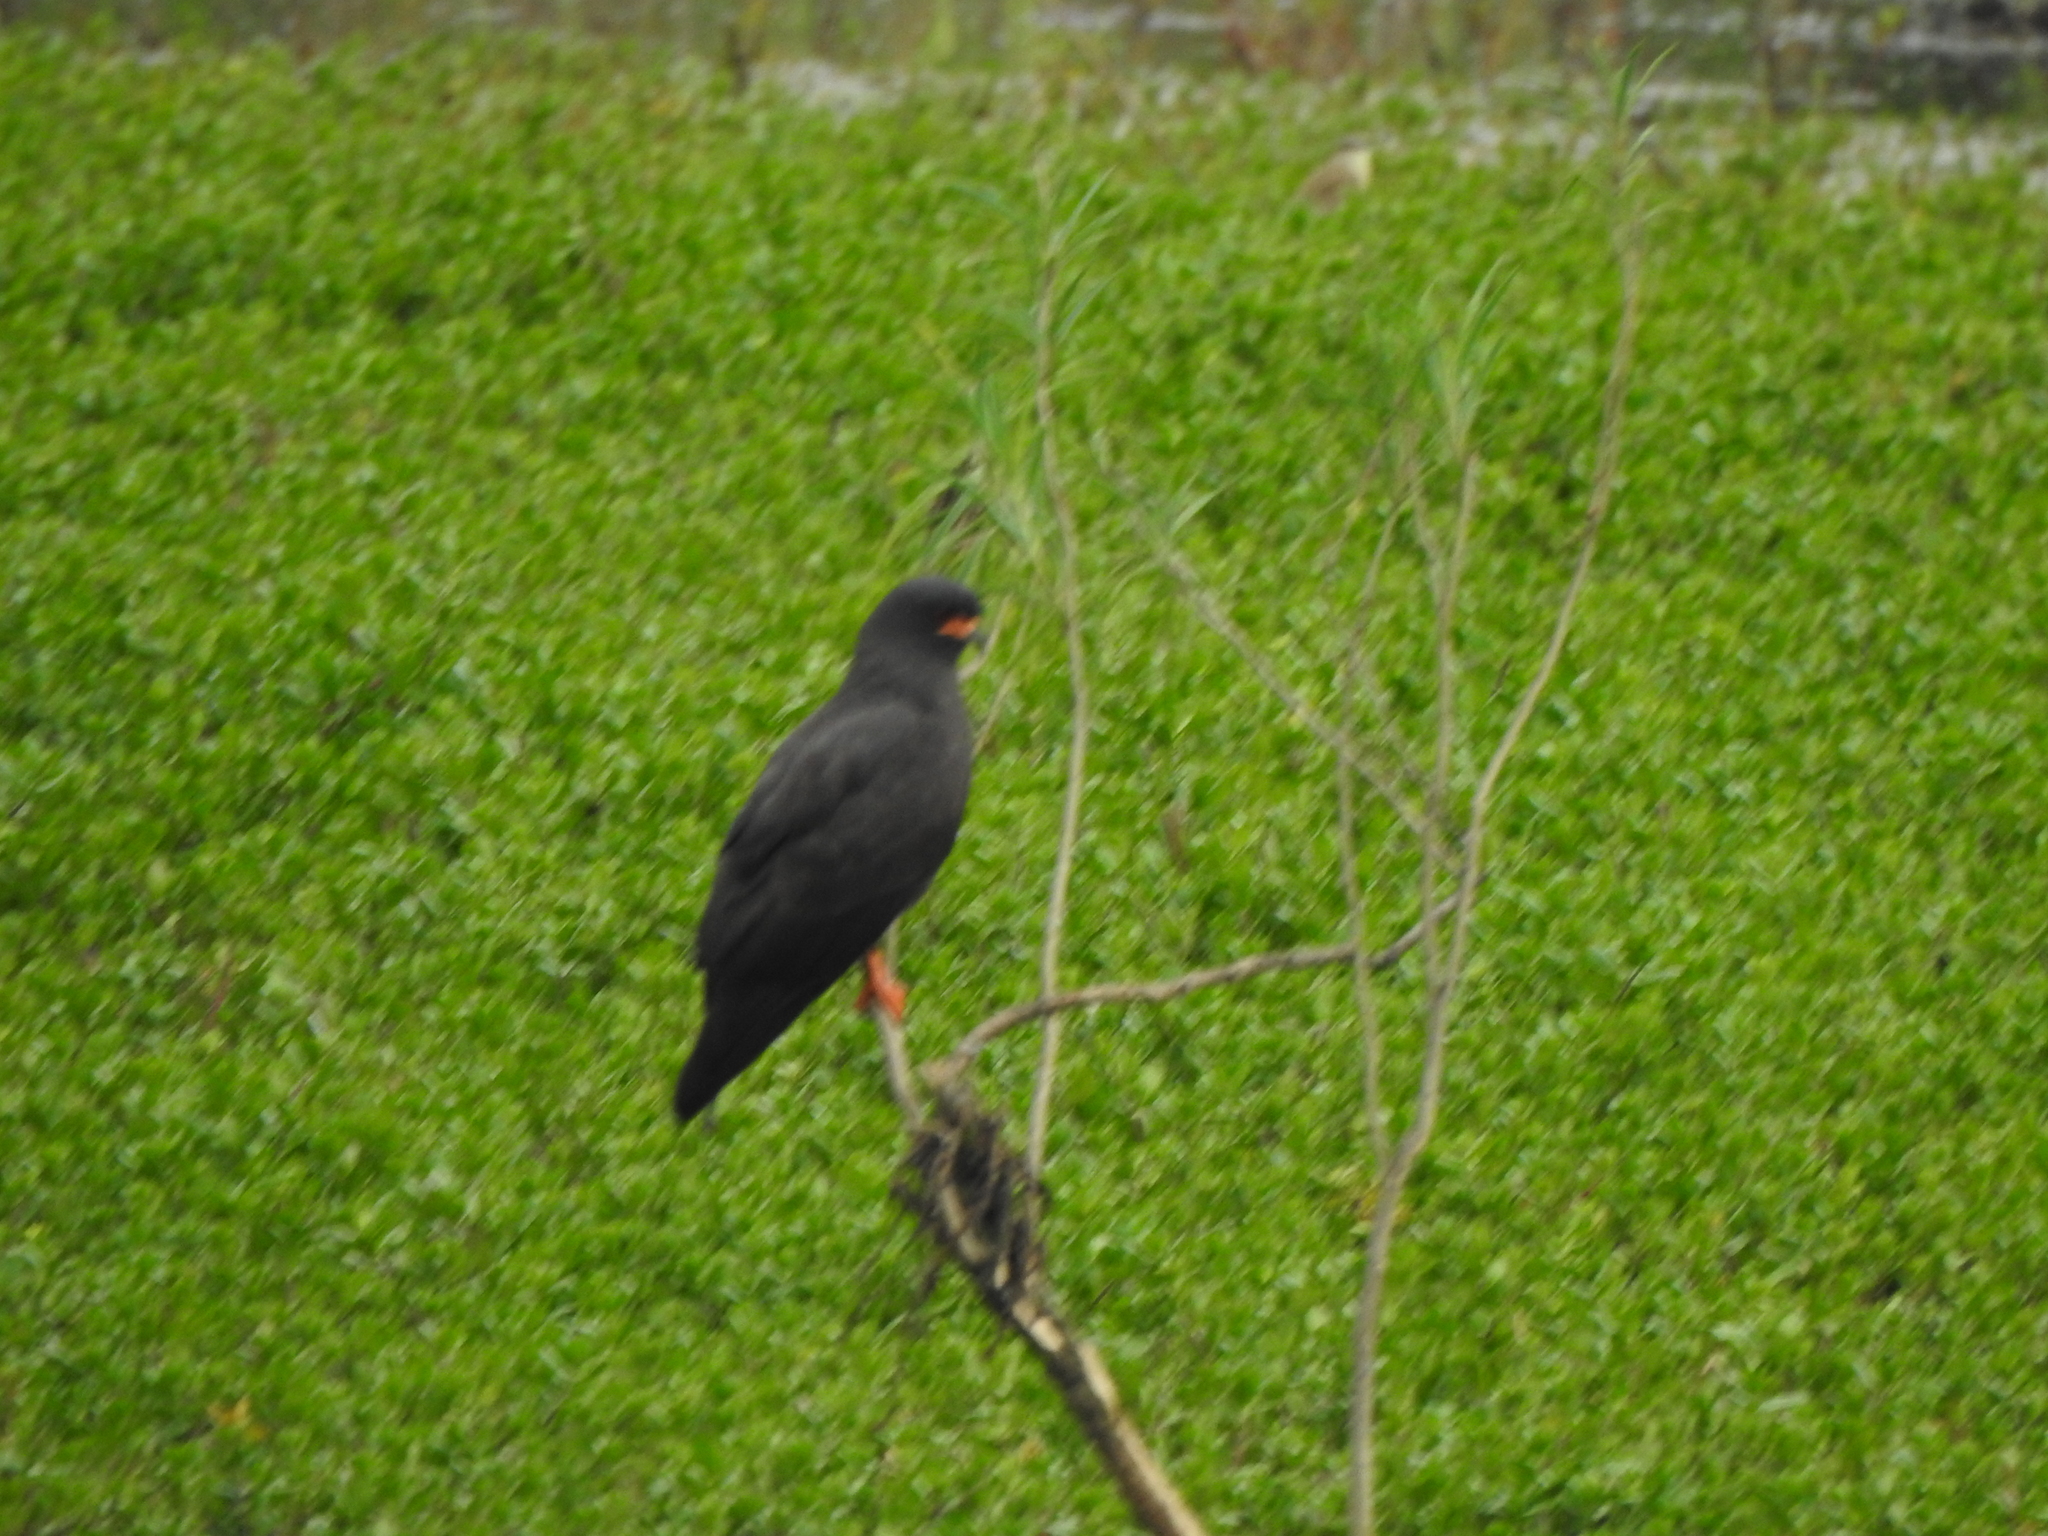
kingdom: Animalia
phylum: Chordata
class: Aves
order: Accipitriformes
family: Accipitridae
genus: Rostrhamus
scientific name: Rostrhamus sociabilis
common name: Snail kite
